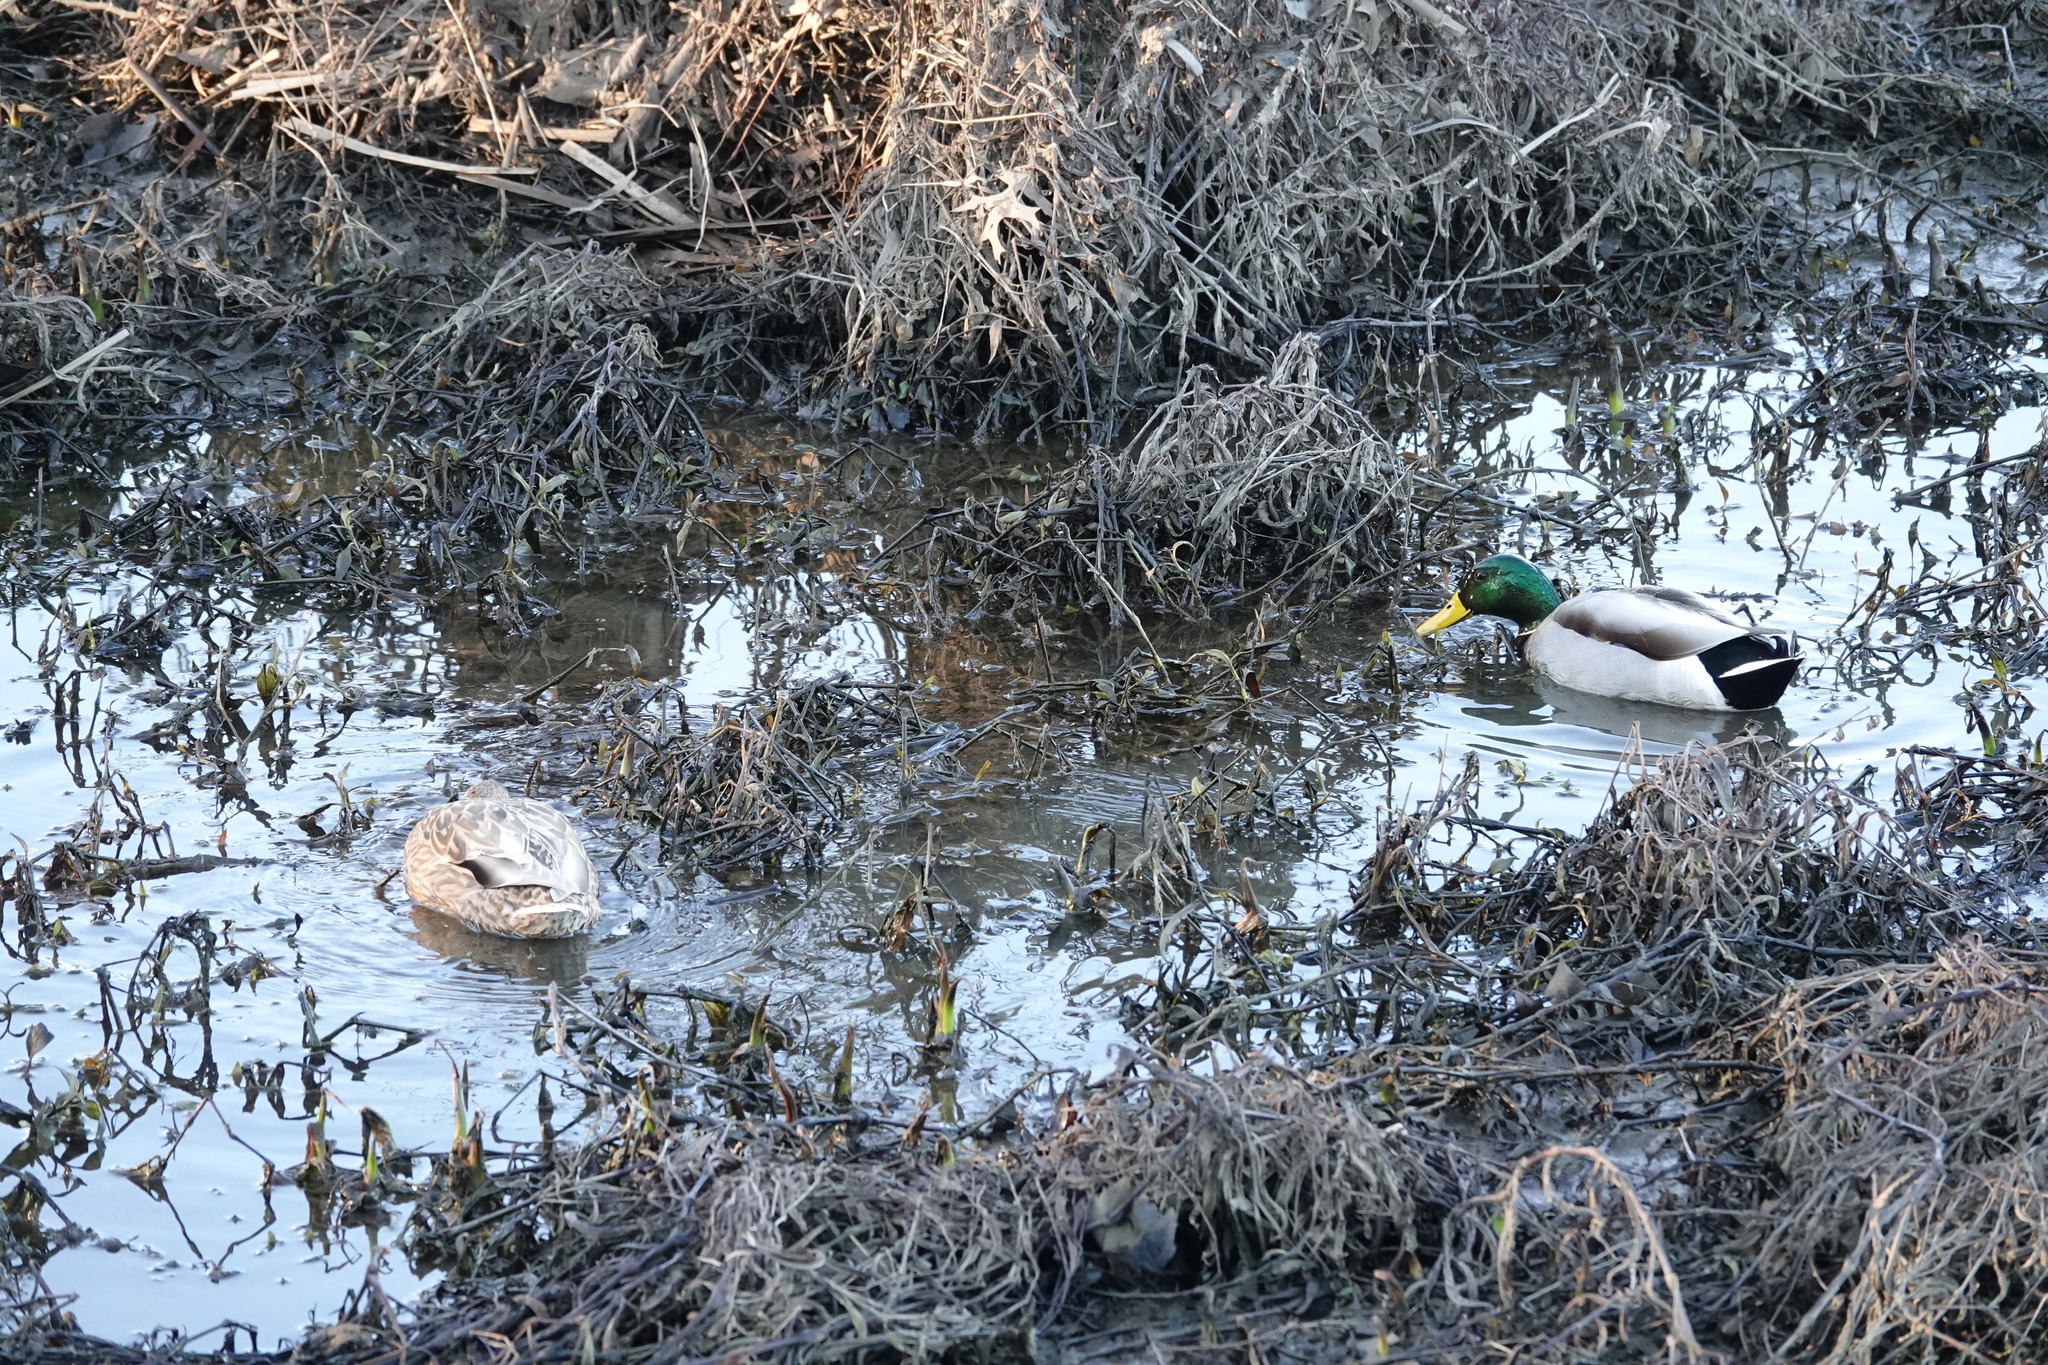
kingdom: Animalia
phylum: Chordata
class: Aves
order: Anseriformes
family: Anatidae
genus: Anas
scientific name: Anas platyrhynchos
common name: Mallard
